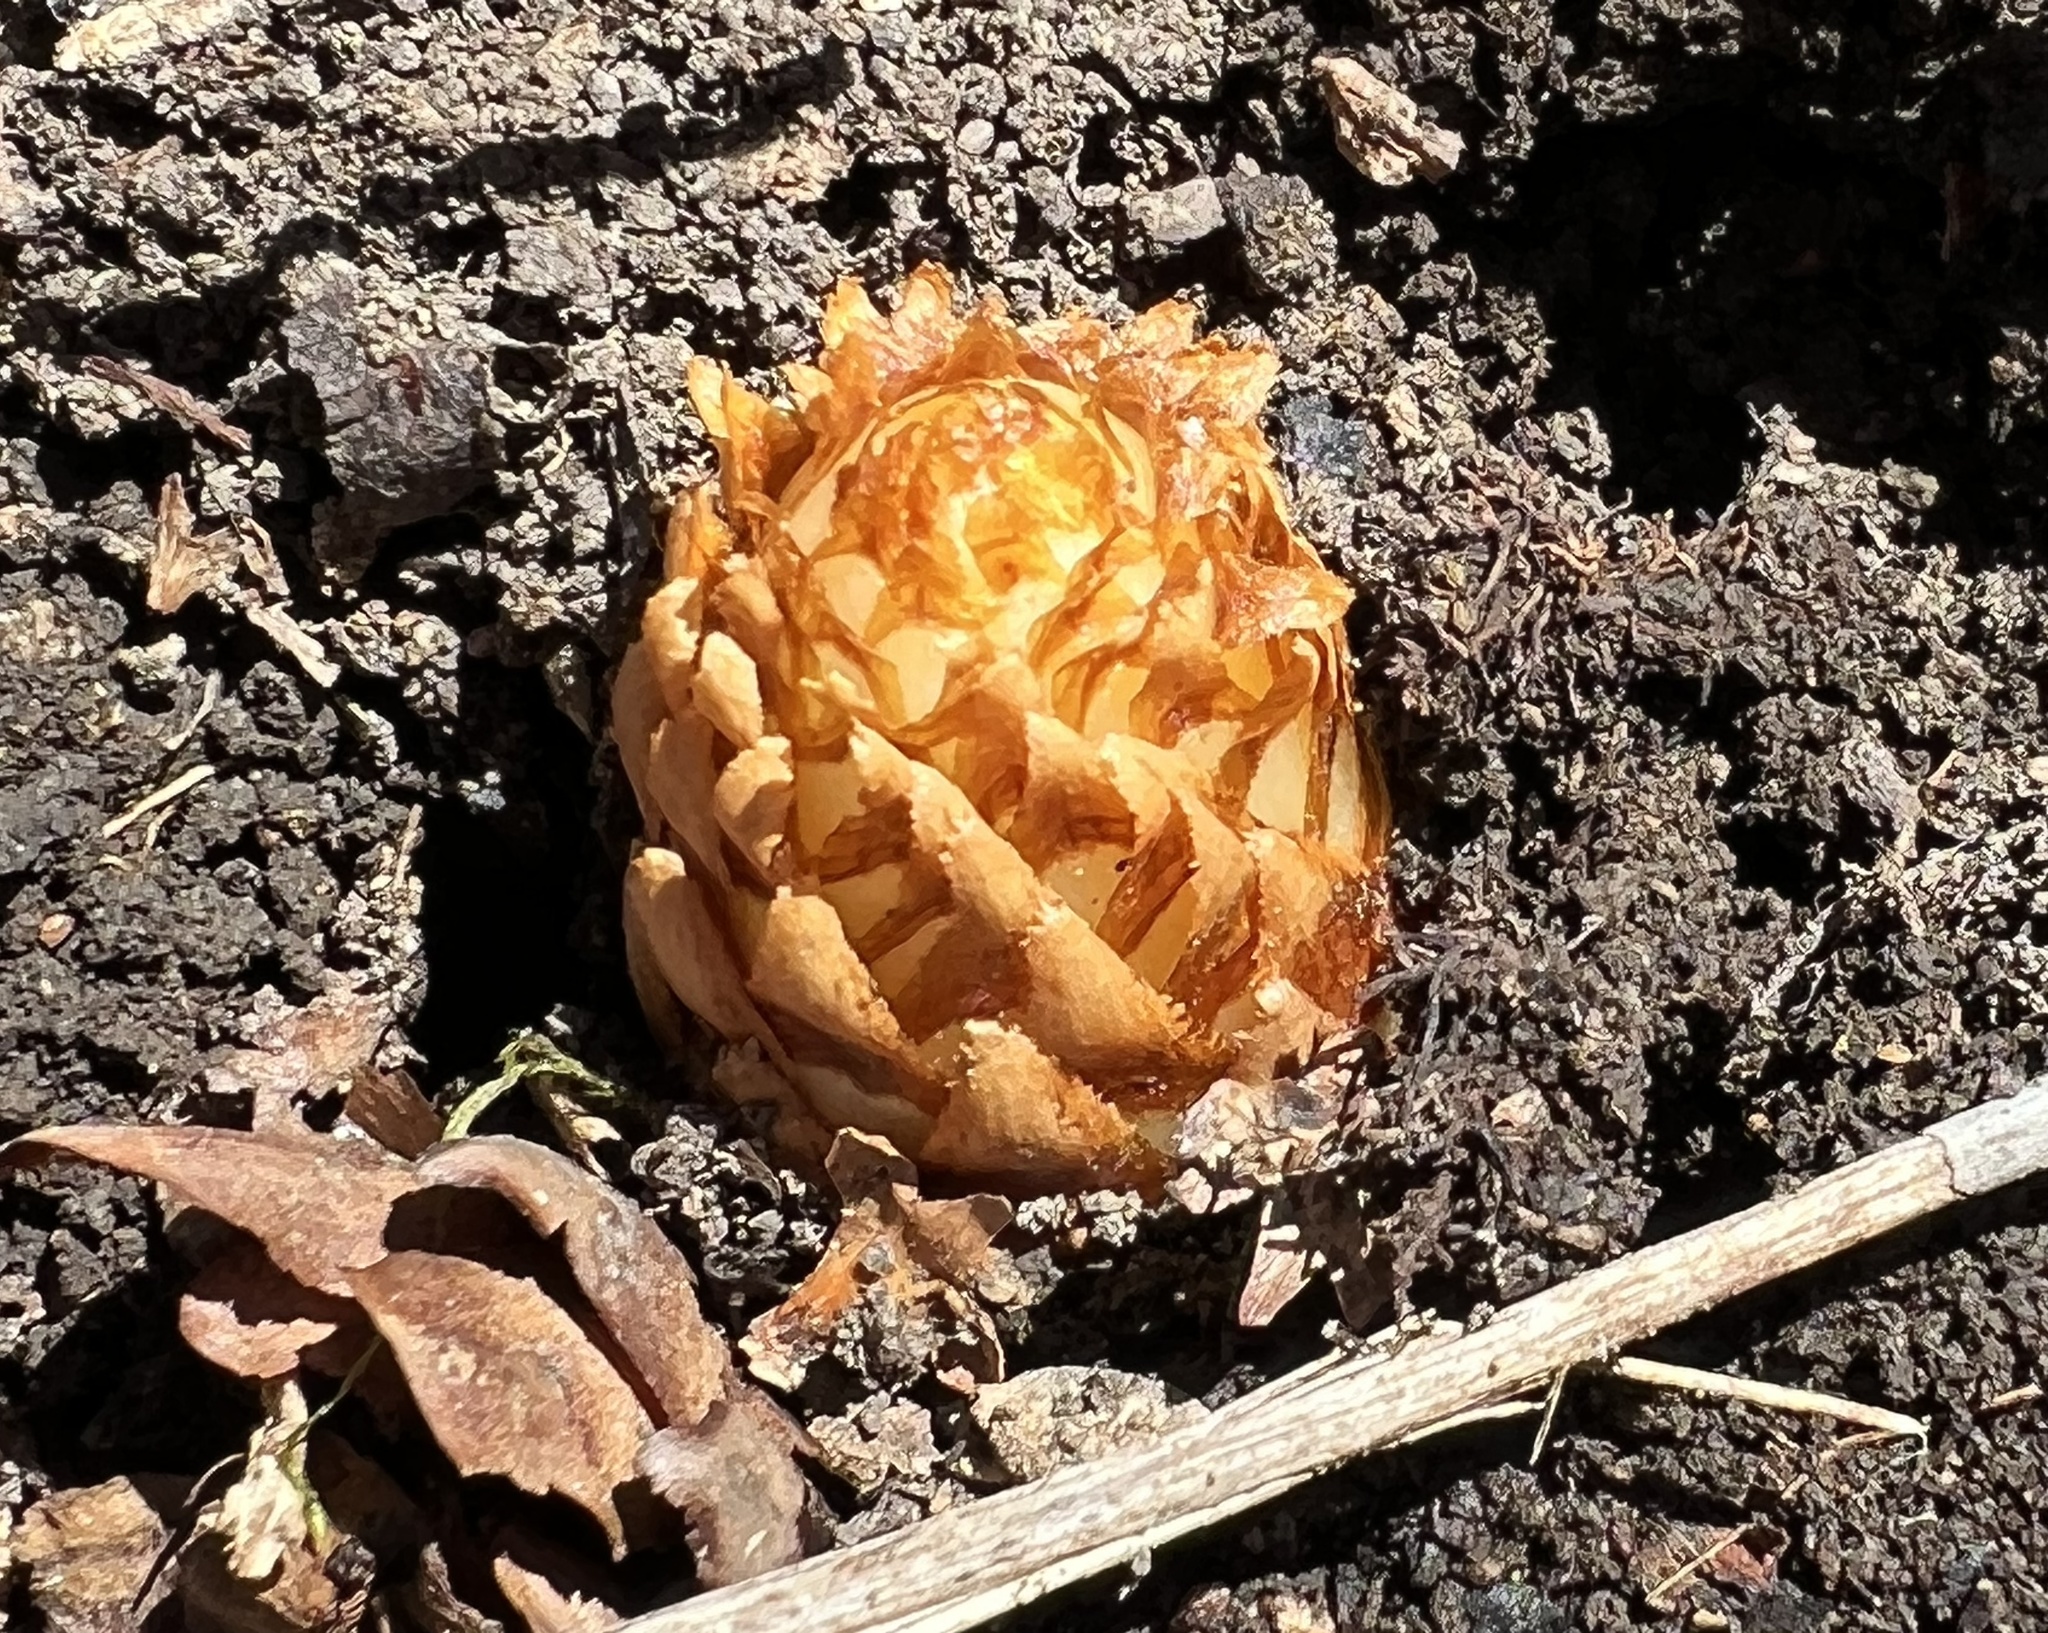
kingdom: Plantae
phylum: Tracheophyta
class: Magnoliopsida
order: Lamiales
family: Orobanchaceae
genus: Conopholis
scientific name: Conopholis americana
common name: American cancer-root
